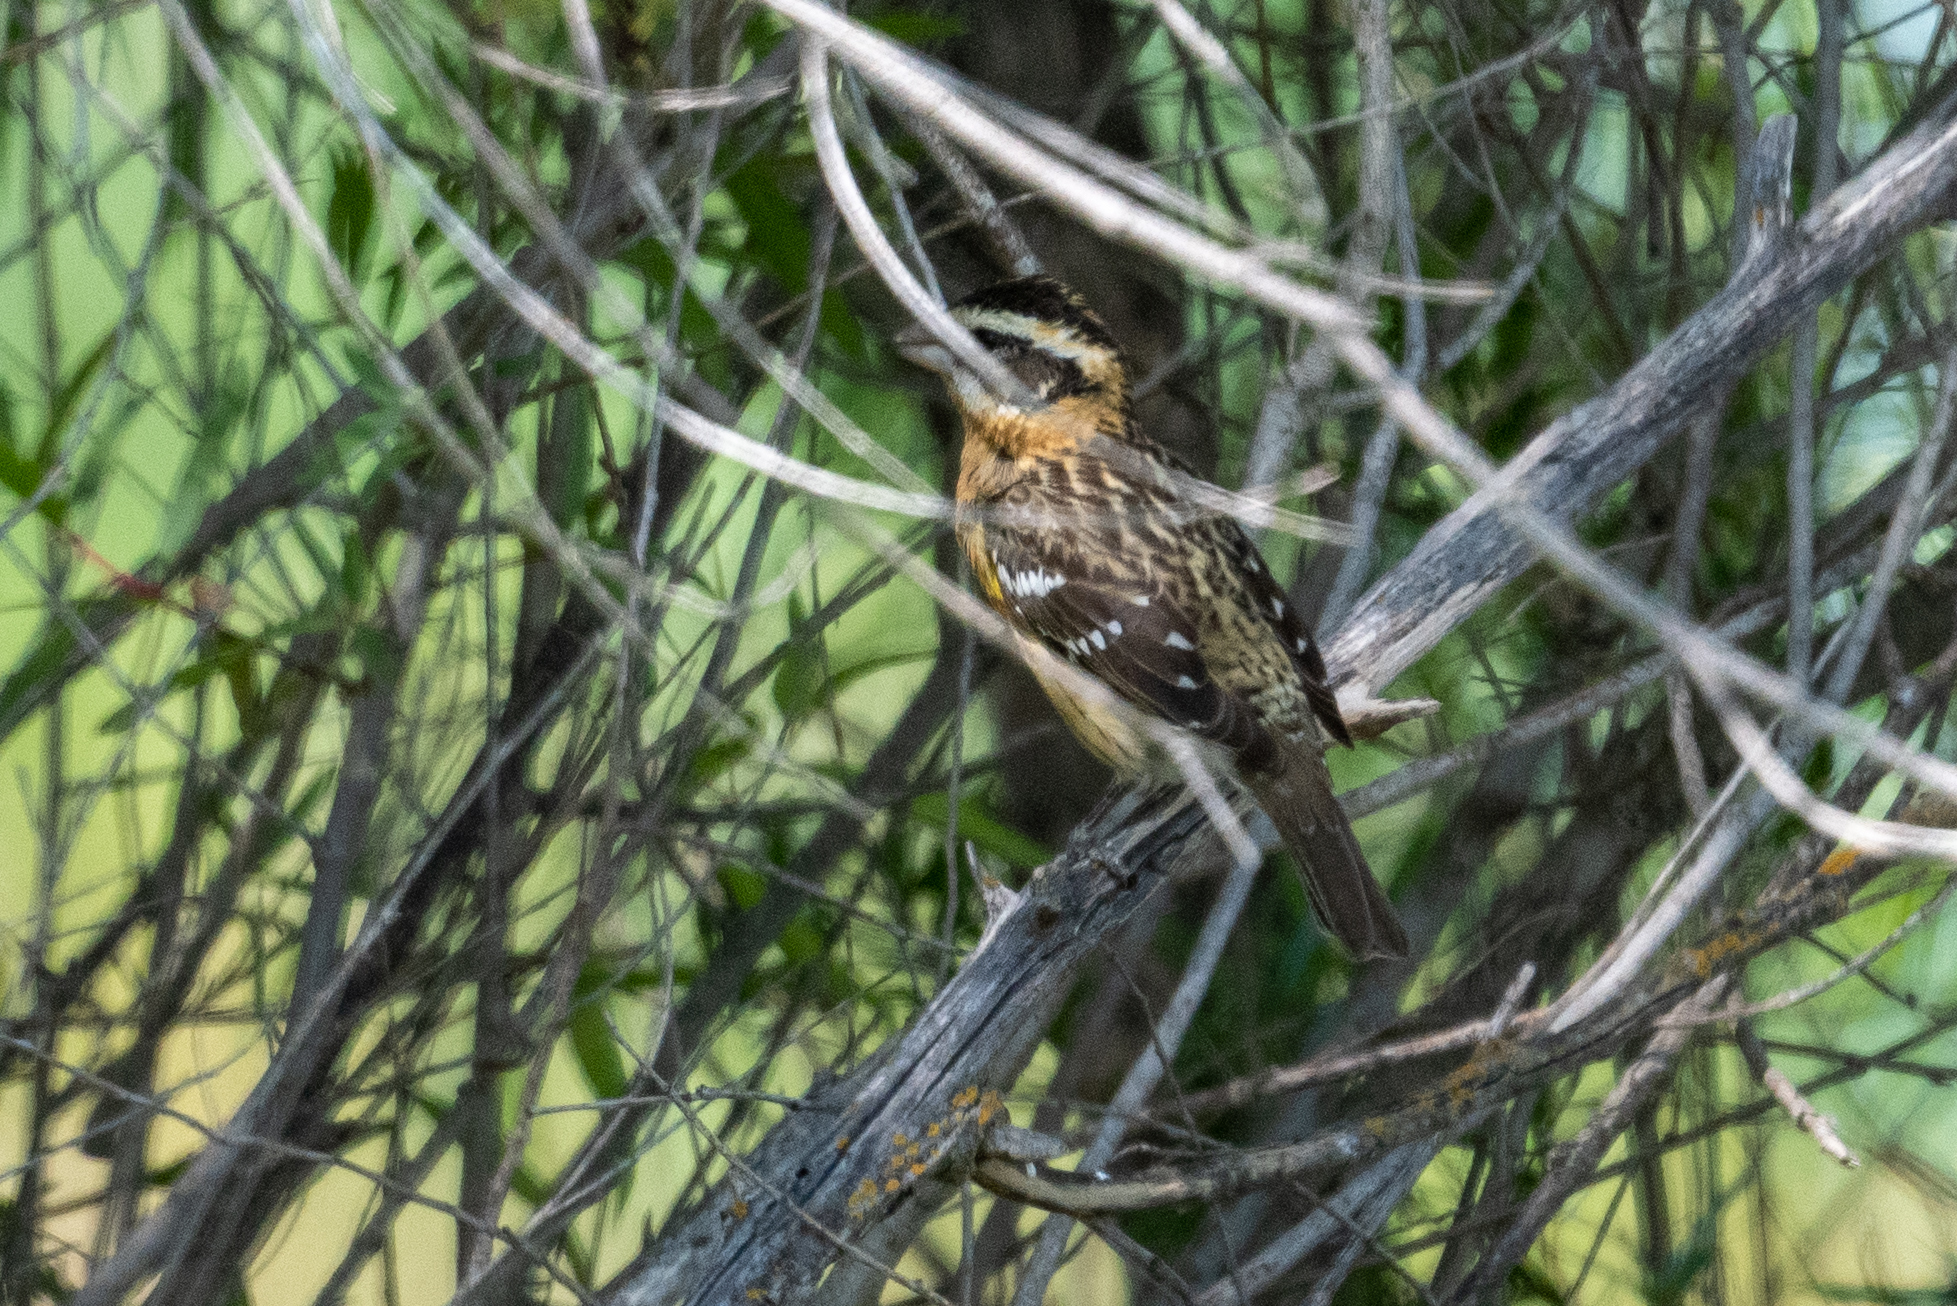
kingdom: Animalia
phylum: Chordata
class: Aves
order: Passeriformes
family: Cardinalidae
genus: Pheucticus
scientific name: Pheucticus melanocephalus
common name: Black-headed grosbeak
